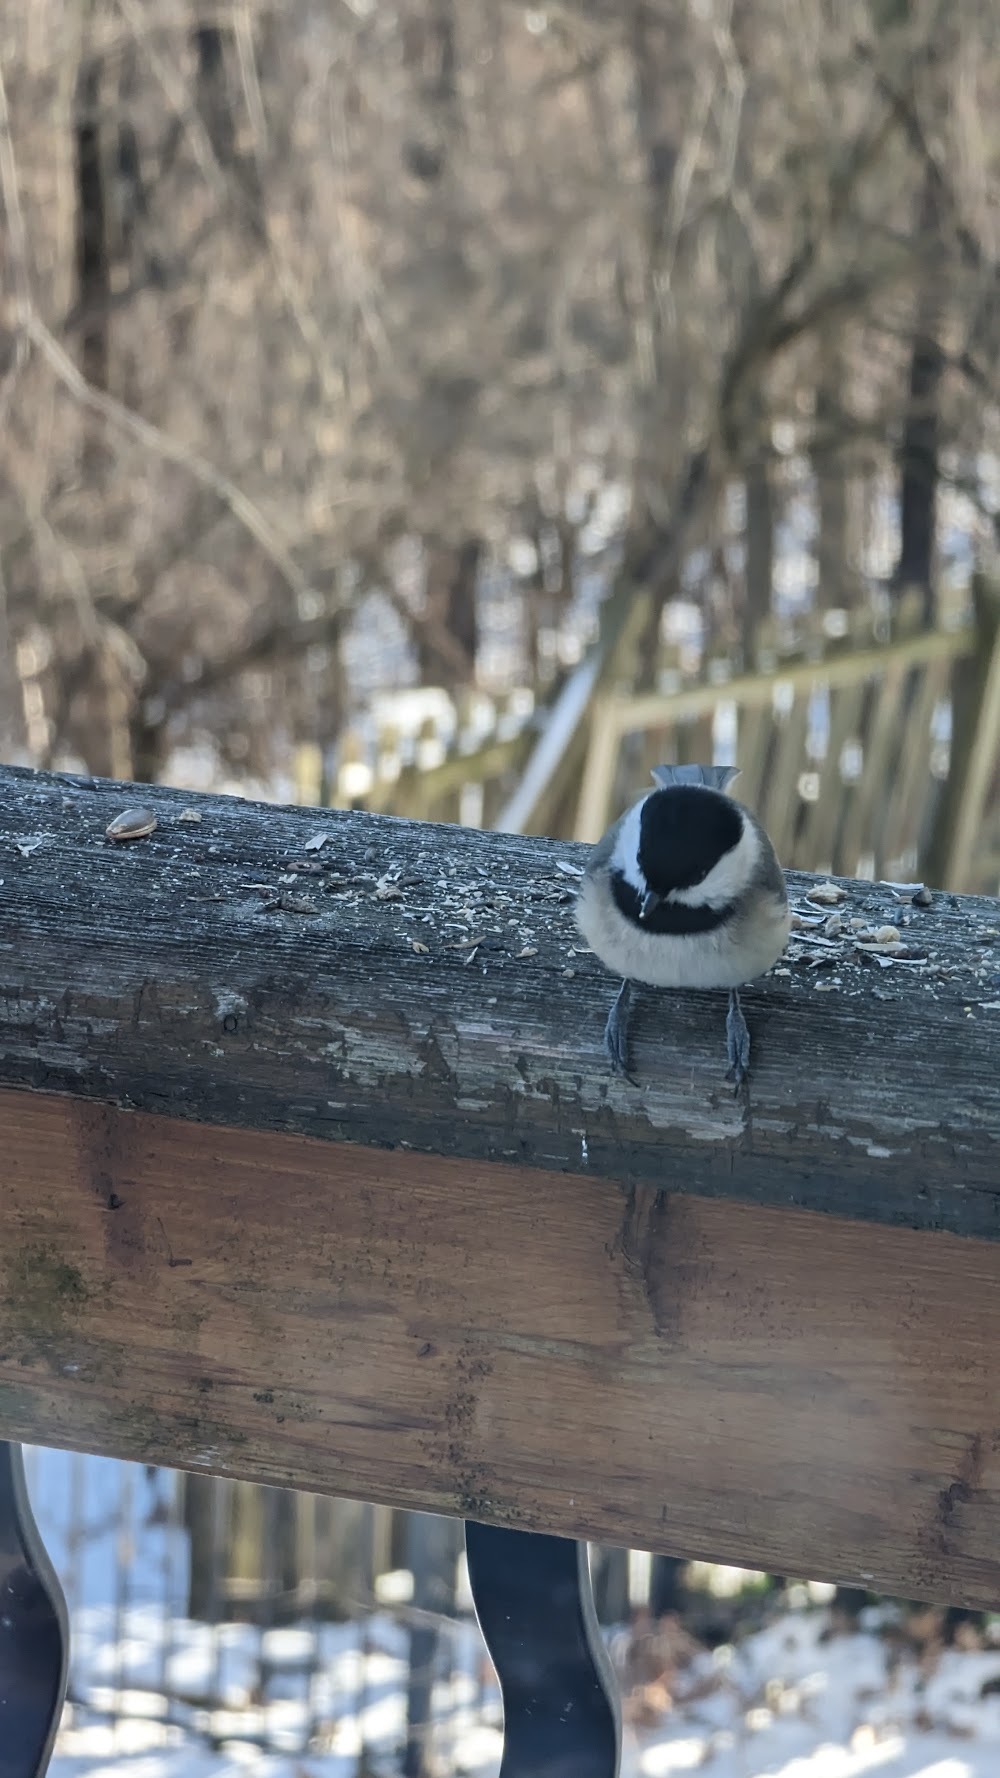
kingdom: Animalia
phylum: Chordata
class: Aves
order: Passeriformes
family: Paridae
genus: Poecile
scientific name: Poecile atricapillus
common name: Black-capped chickadee
